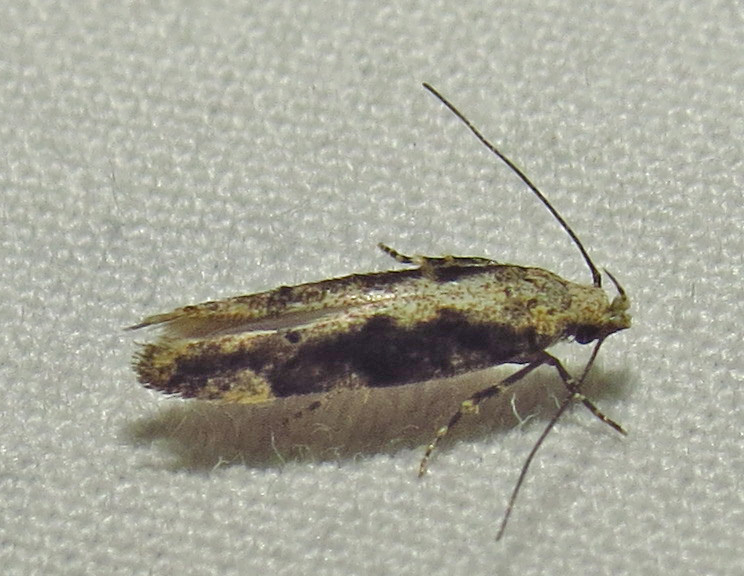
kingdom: Animalia
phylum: Arthropoda
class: Insecta
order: Lepidoptera
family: Gelechiidae
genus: Coleotechnites
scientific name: Coleotechnites florae
